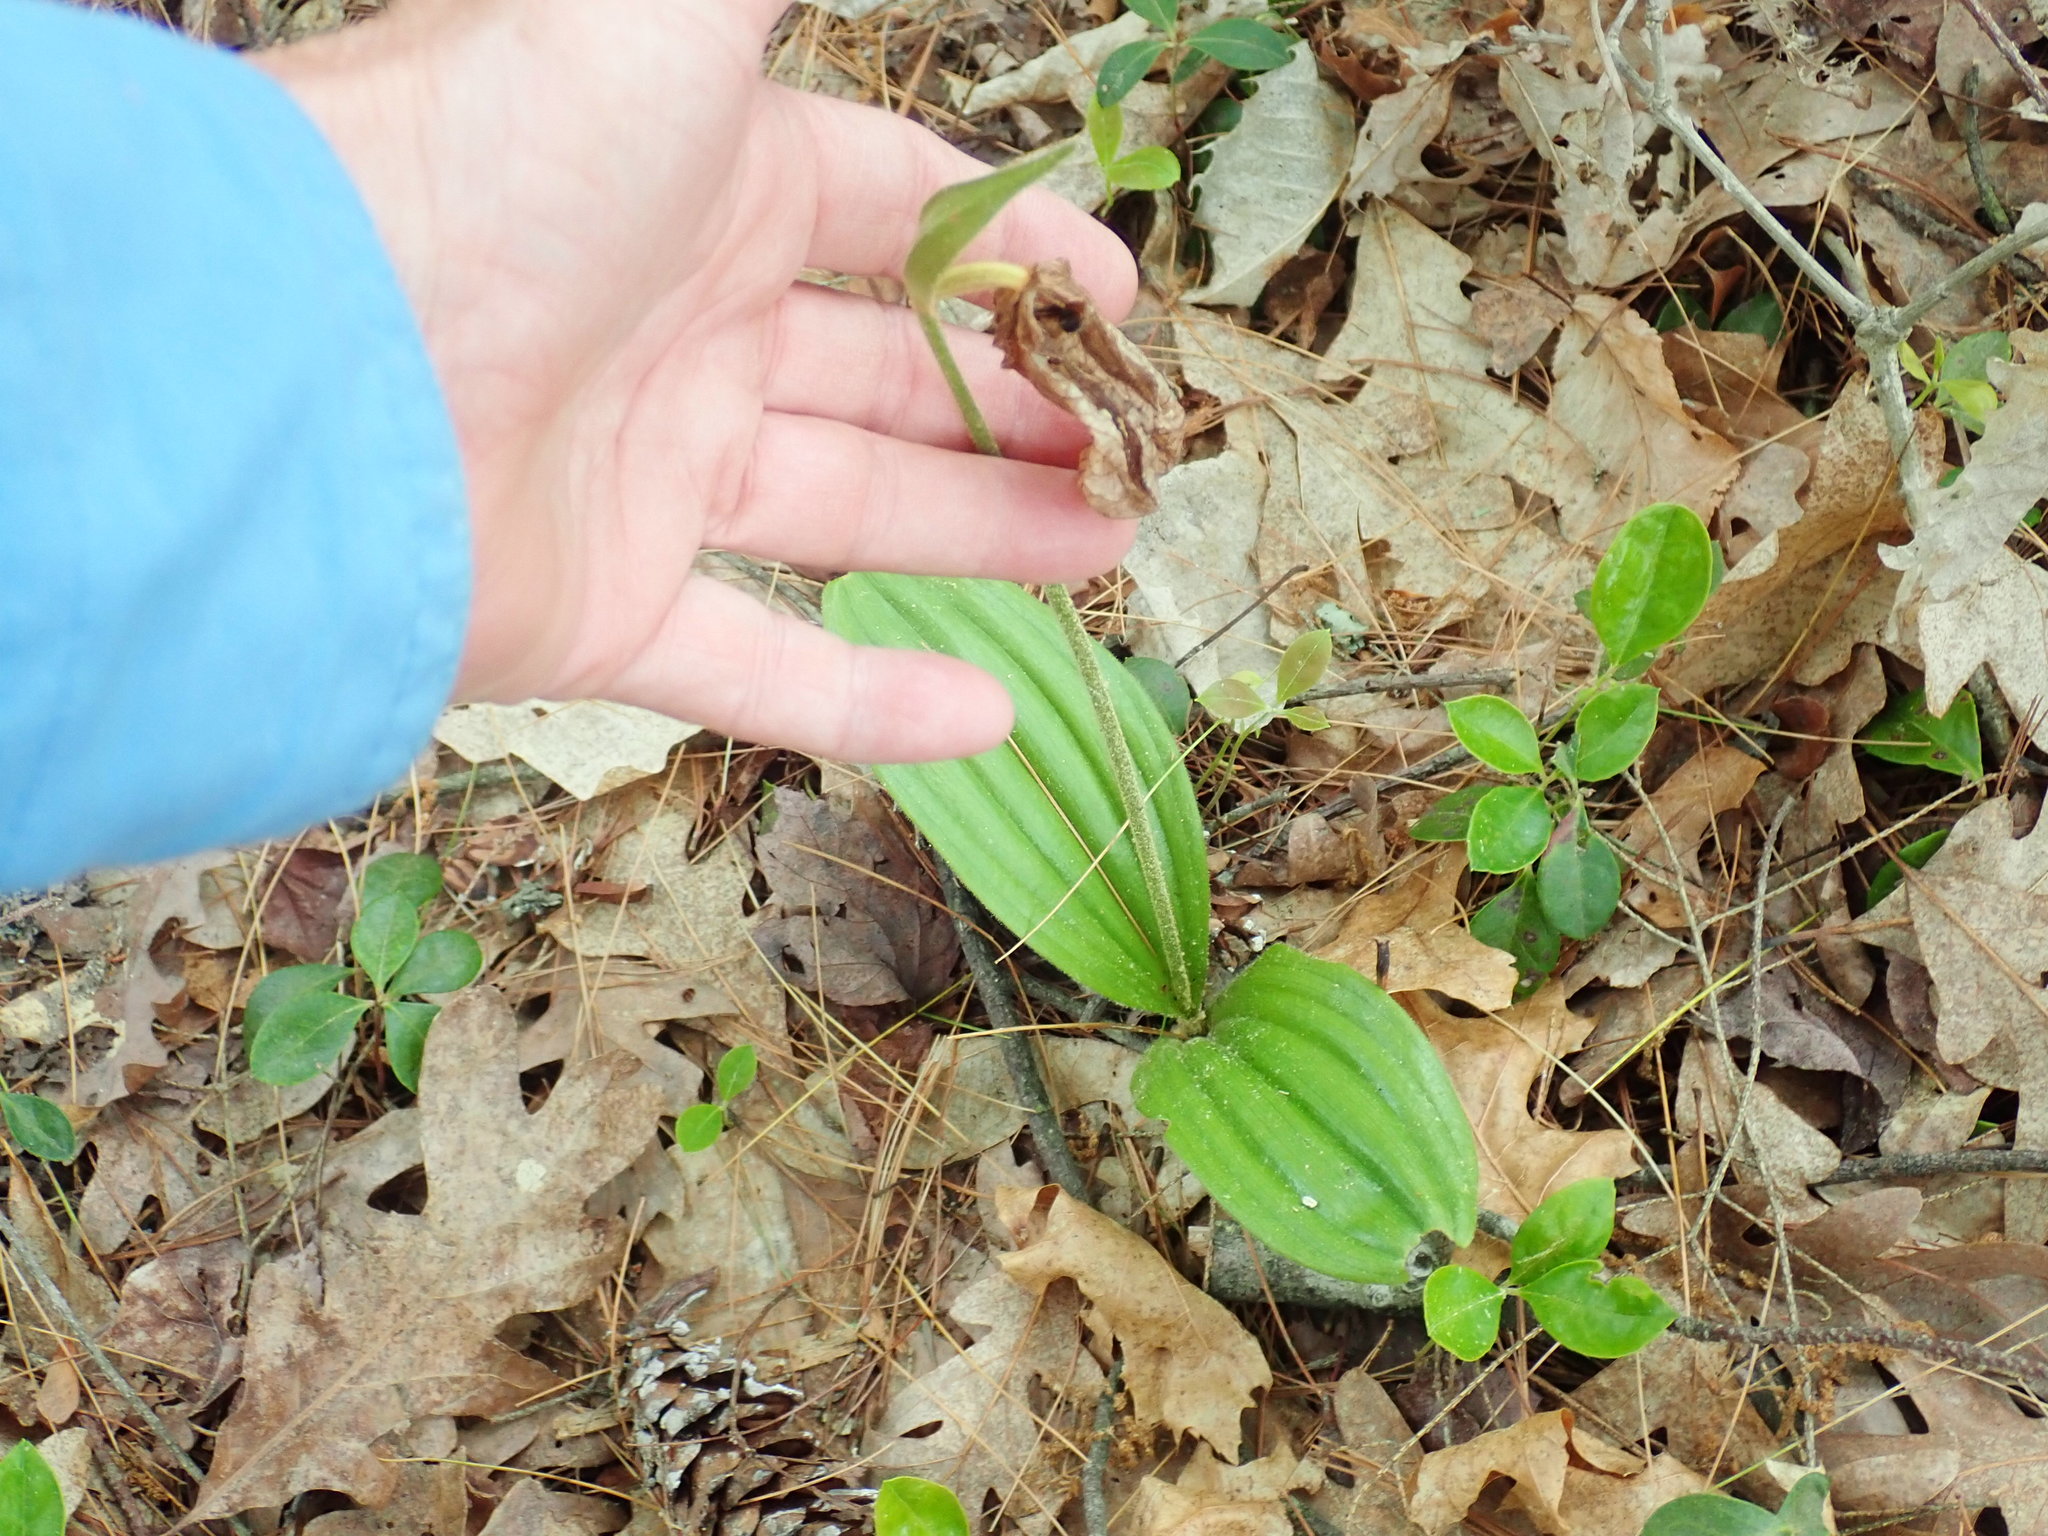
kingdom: Plantae
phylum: Tracheophyta
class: Liliopsida
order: Asparagales
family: Orchidaceae
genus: Cypripedium
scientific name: Cypripedium acaule
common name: Pink lady's-slipper
